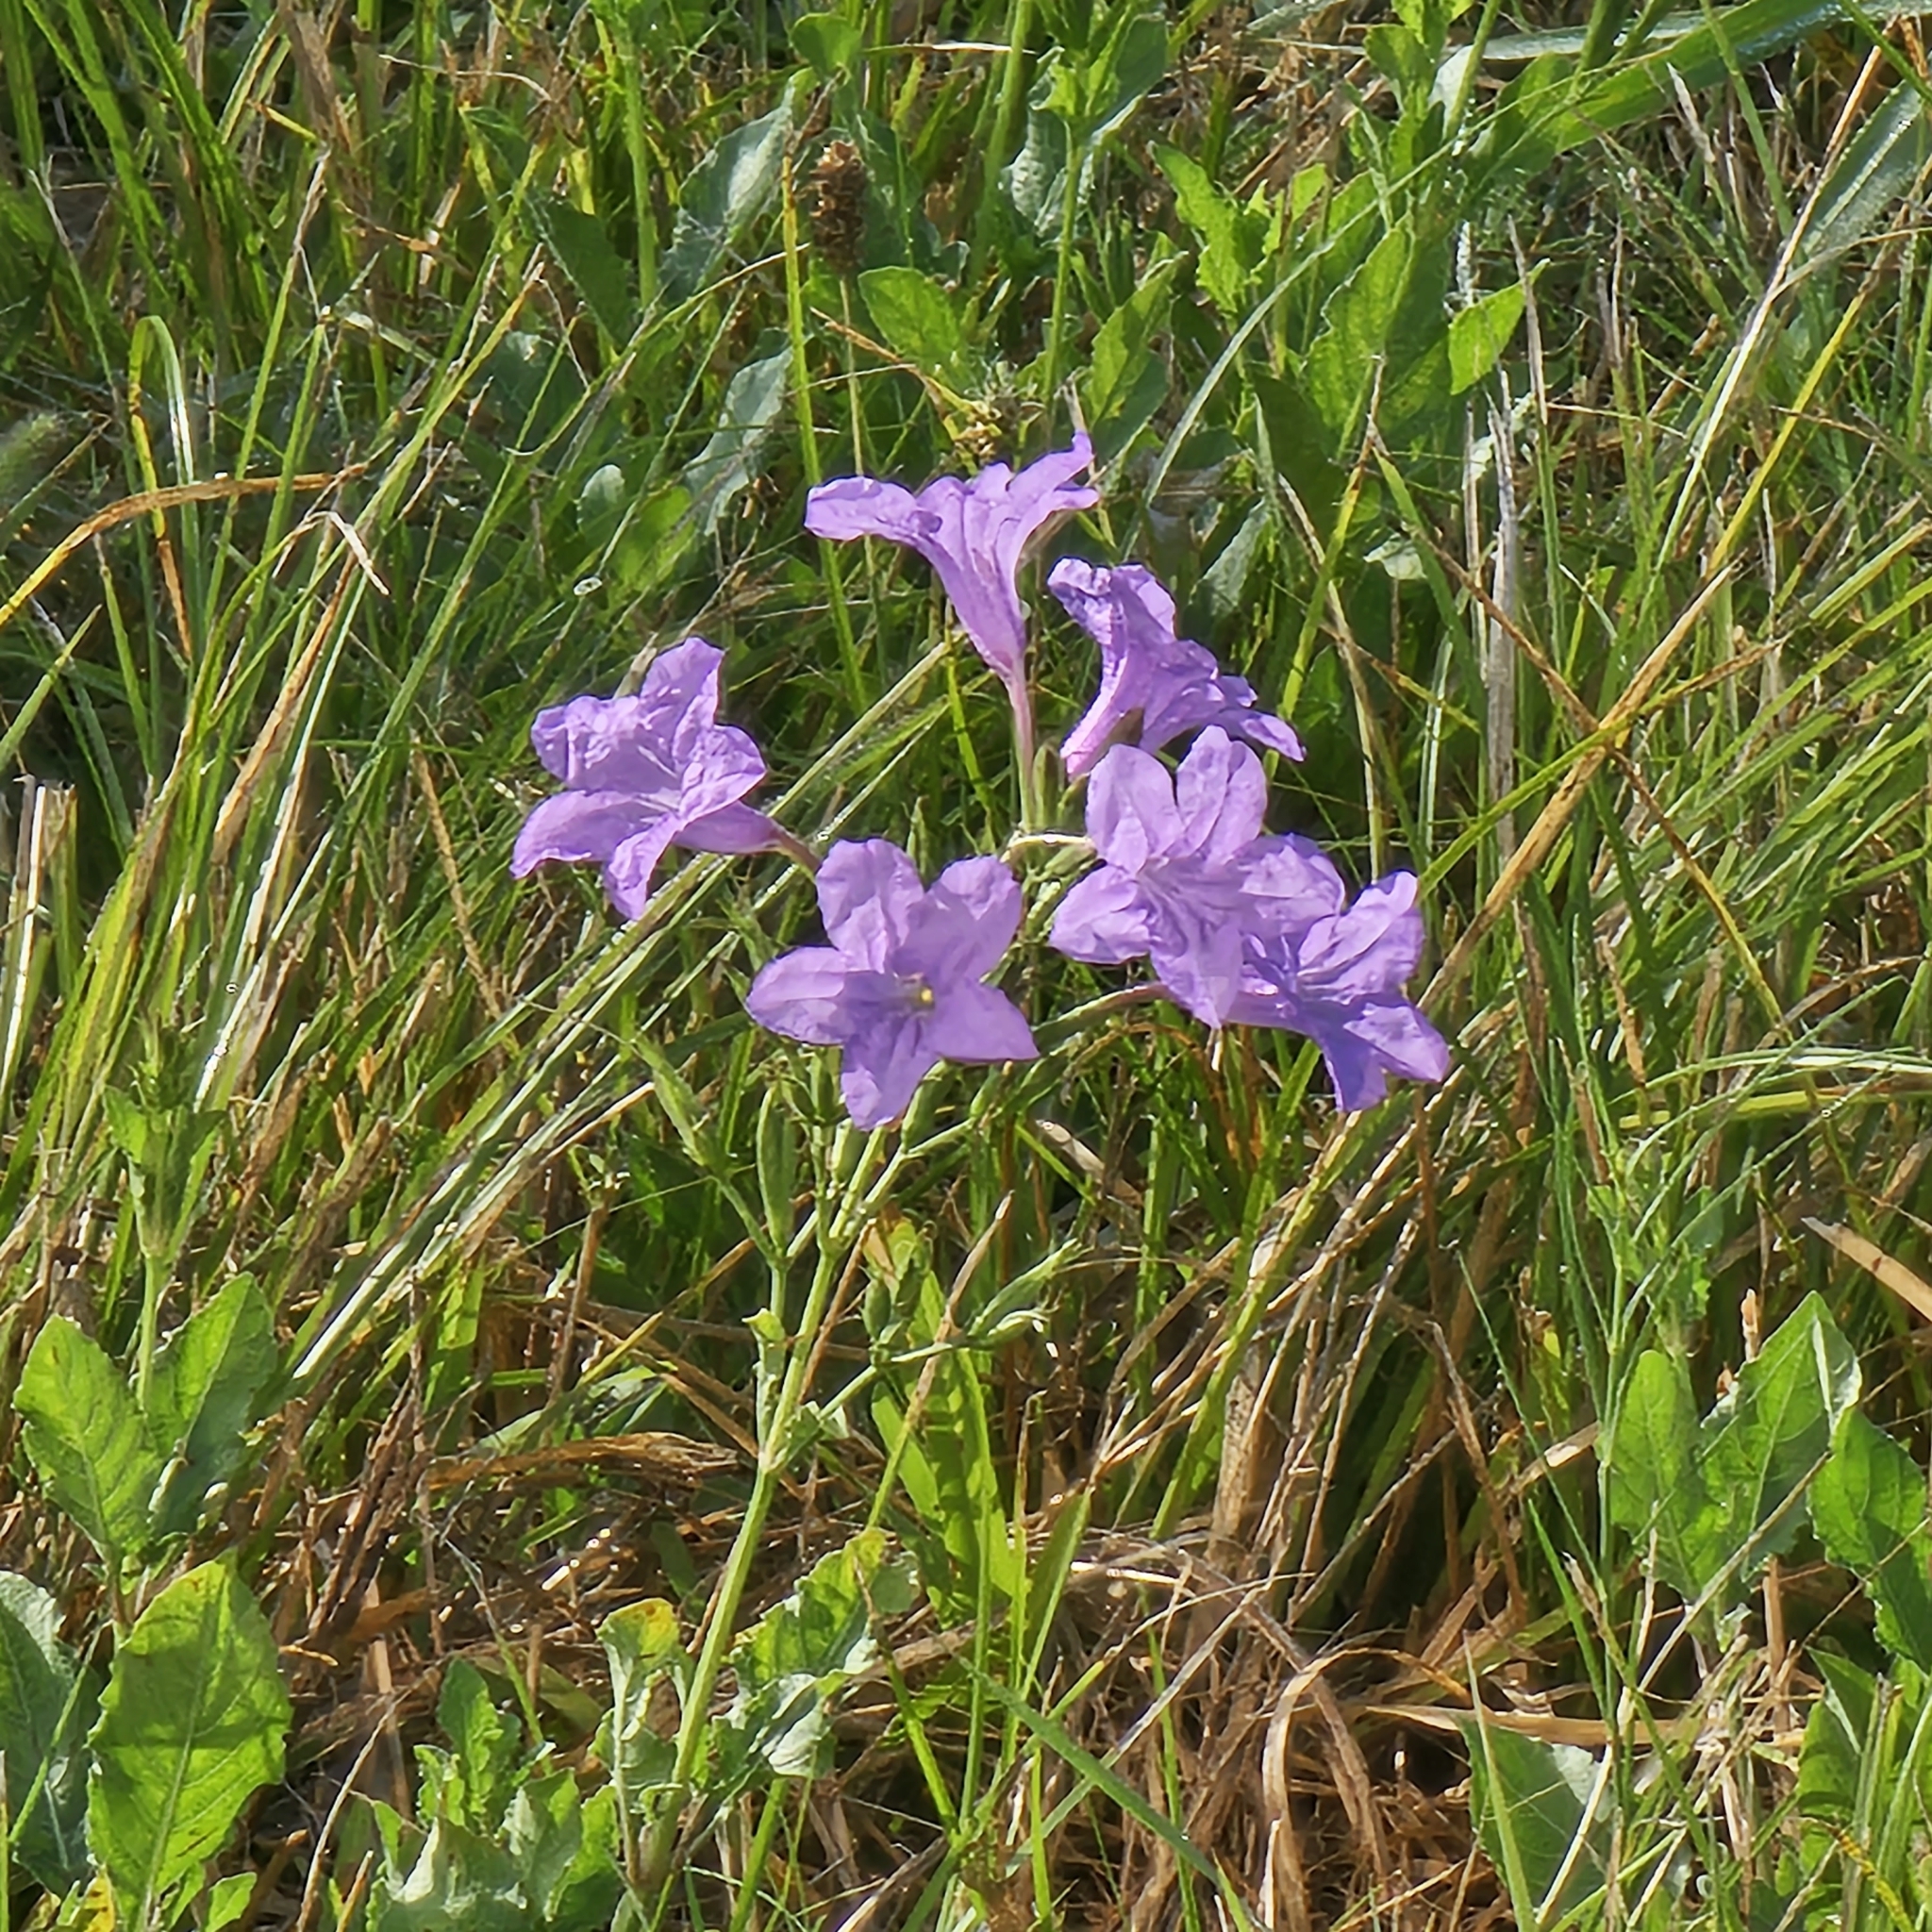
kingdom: Plantae
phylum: Tracheophyta
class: Magnoliopsida
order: Lamiales
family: Acanthaceae
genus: Ruellia
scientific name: Ruellia ciliatiflora
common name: Hairyflower wild petunia
